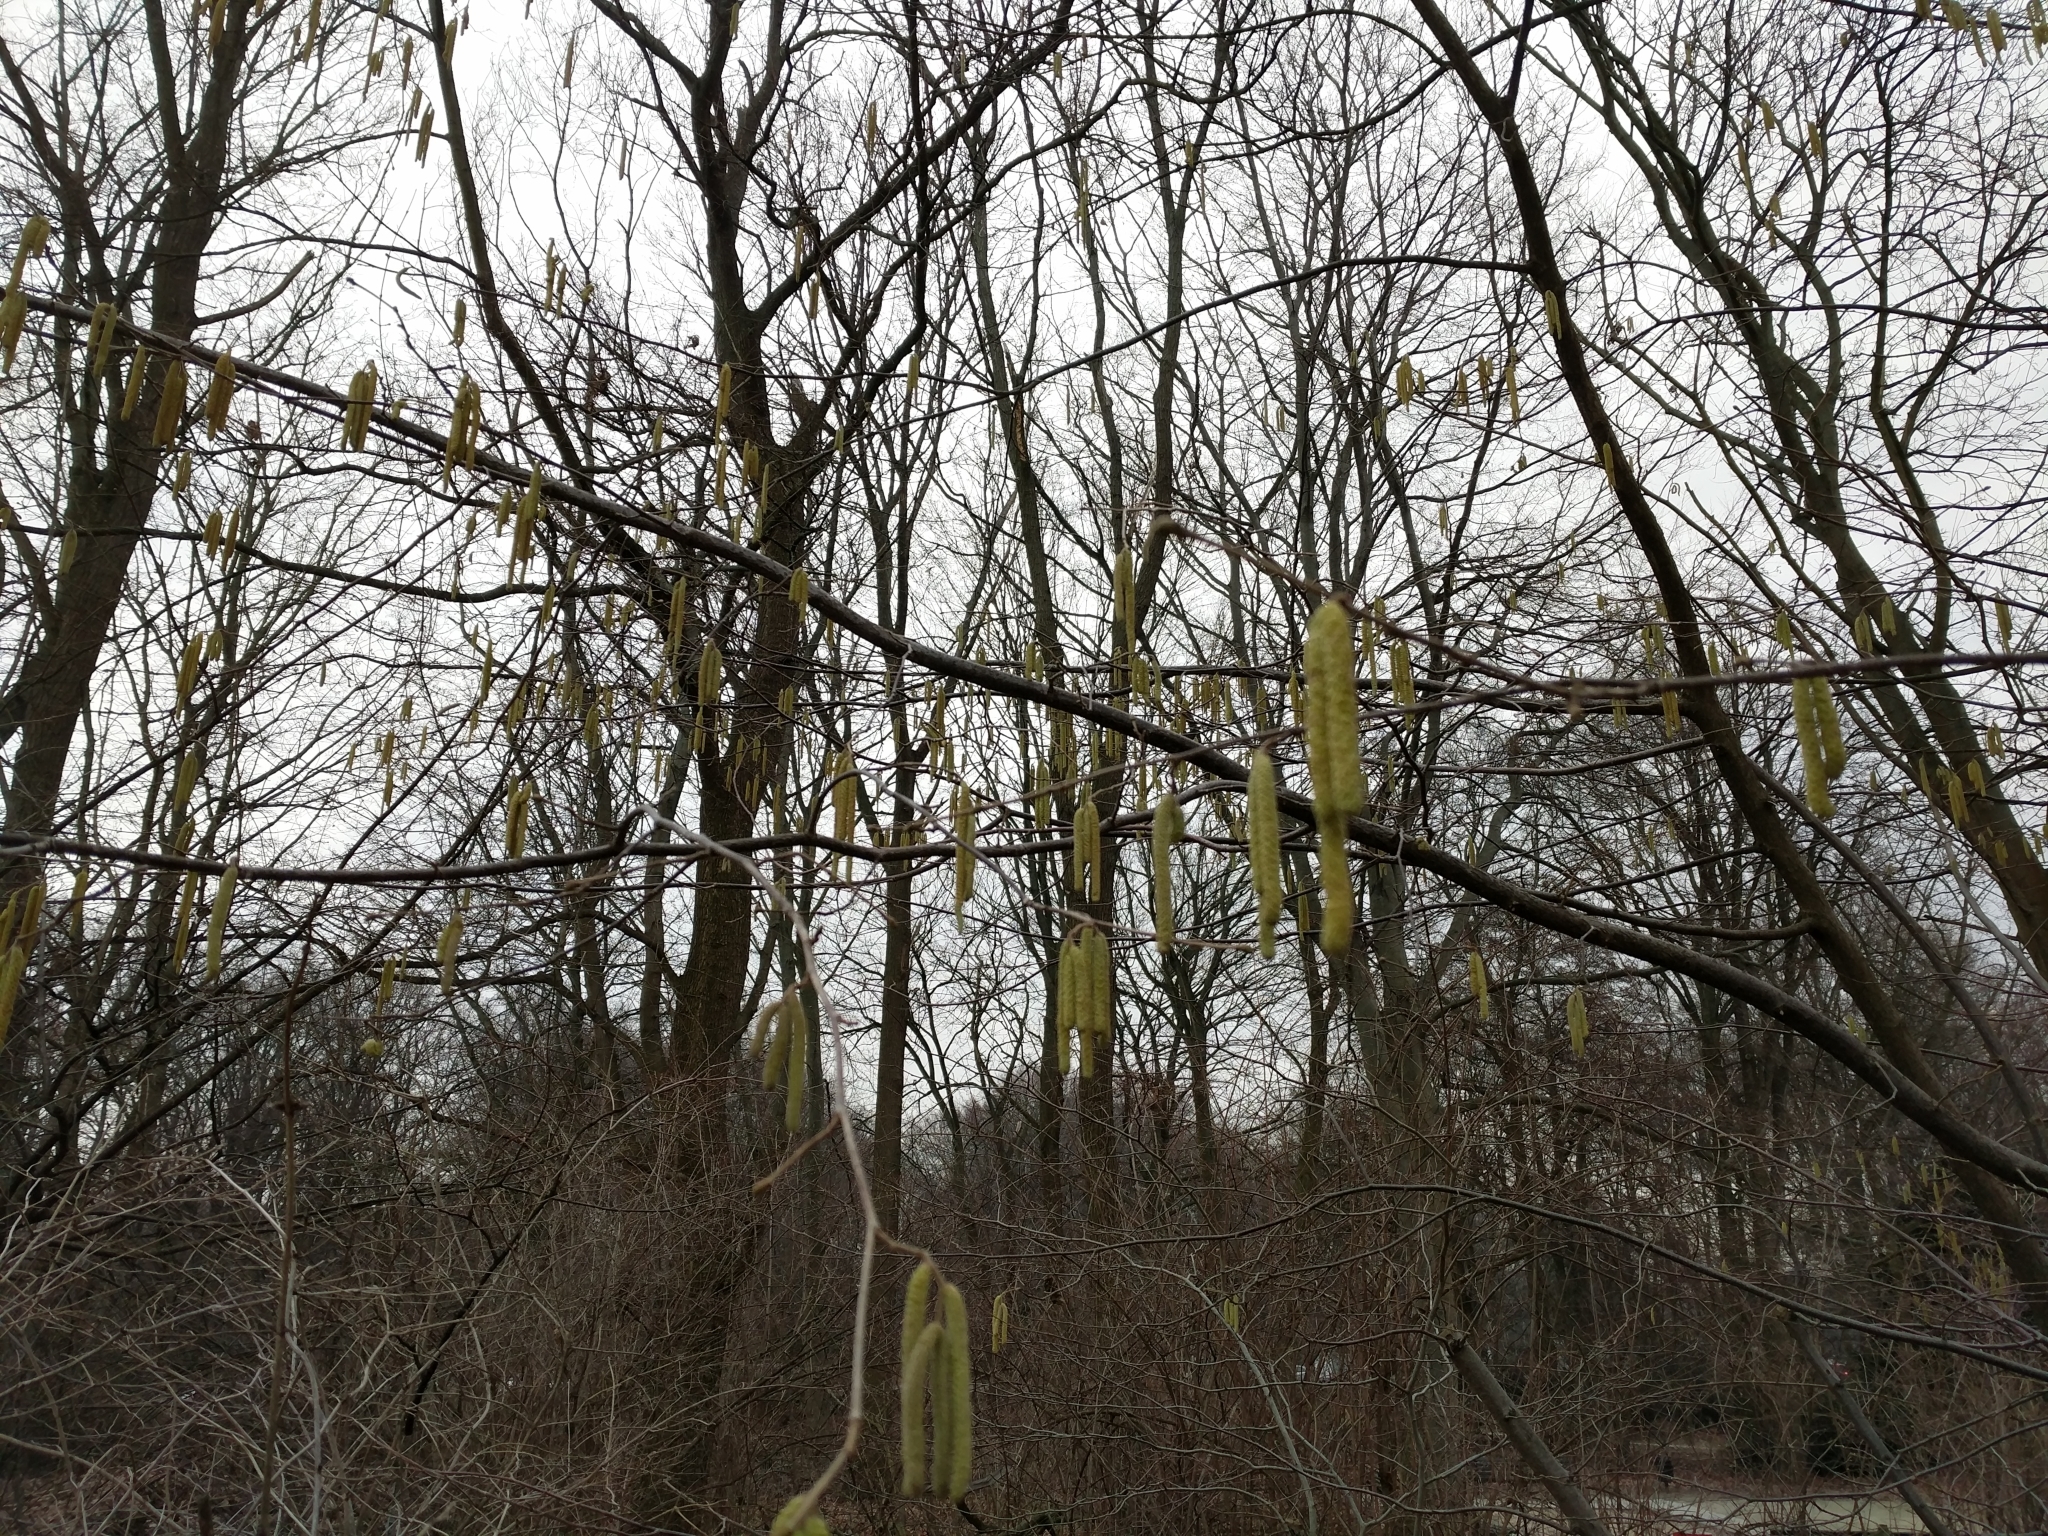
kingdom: Plantae
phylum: Tracheophyta
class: Magnoliopsida
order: Fagales
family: Betulaceae
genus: Corylus
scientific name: Corylus avellana
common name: European hazel
